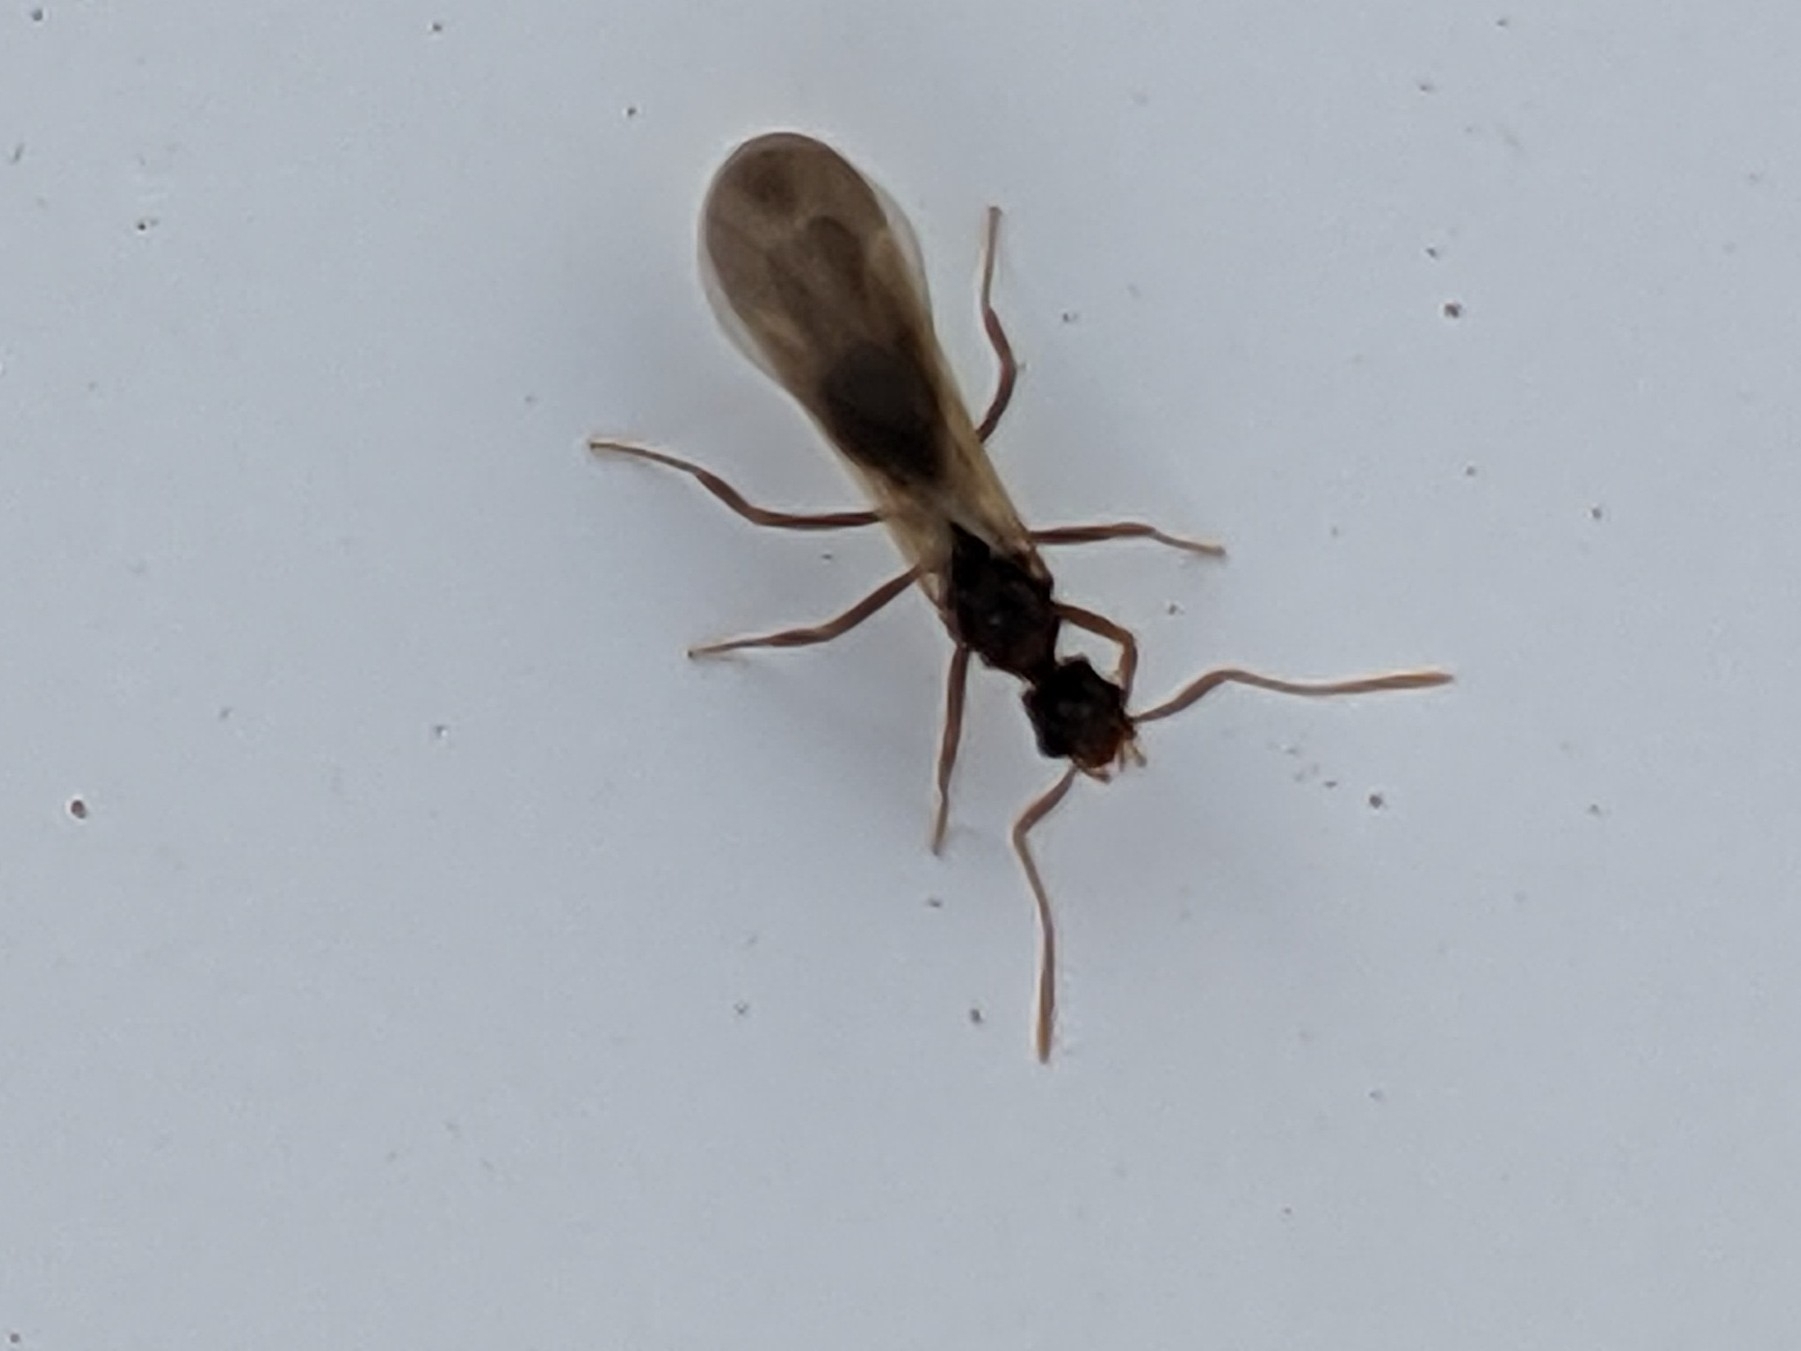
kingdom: Animalia
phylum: Arthropoda
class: Insecta
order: Hymenoptera
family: Formicidae
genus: Cyphomyrmex
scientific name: Cyphomyrmex wheeleri
